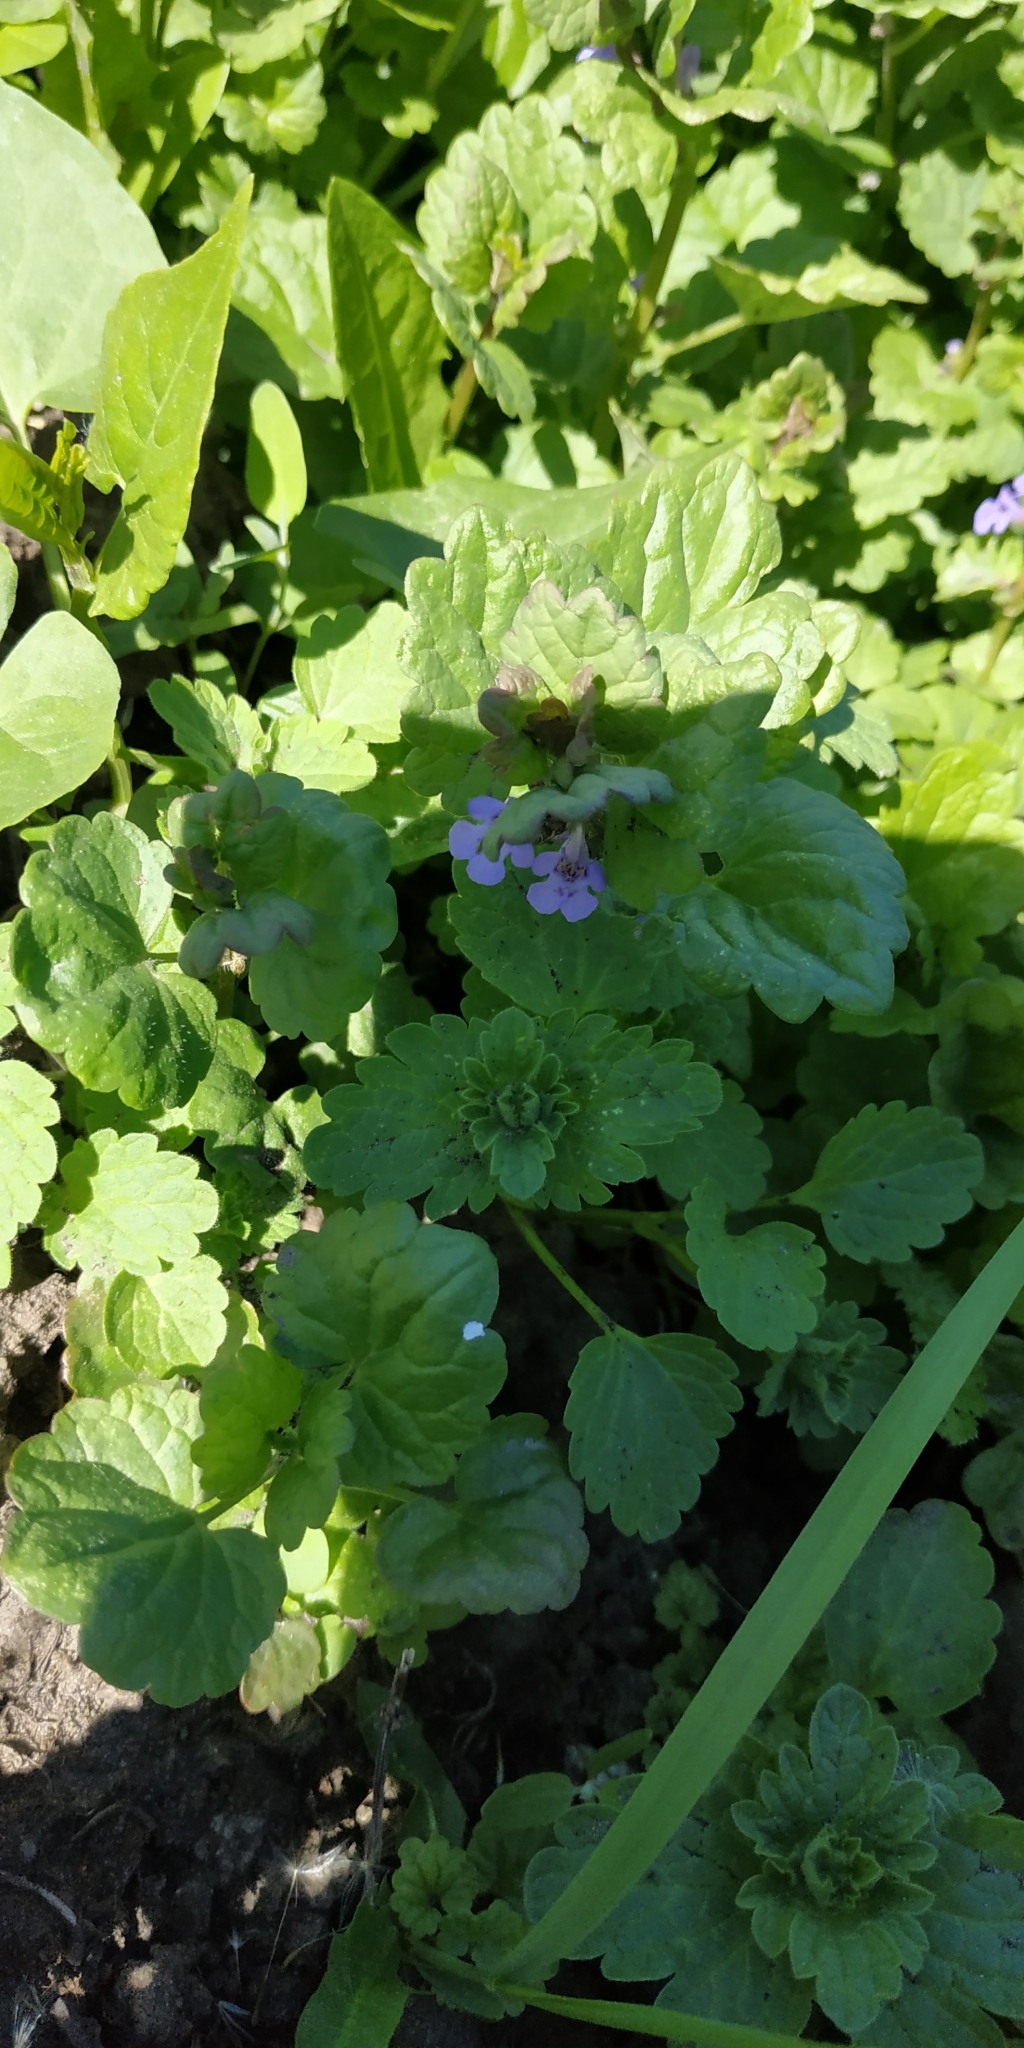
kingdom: Plantae
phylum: Tracheophyta
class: Magnoliopsida
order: Lamiales
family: Lamiaceae
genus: Glechoma
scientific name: Glechoma hederacea
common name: Ground ivy
